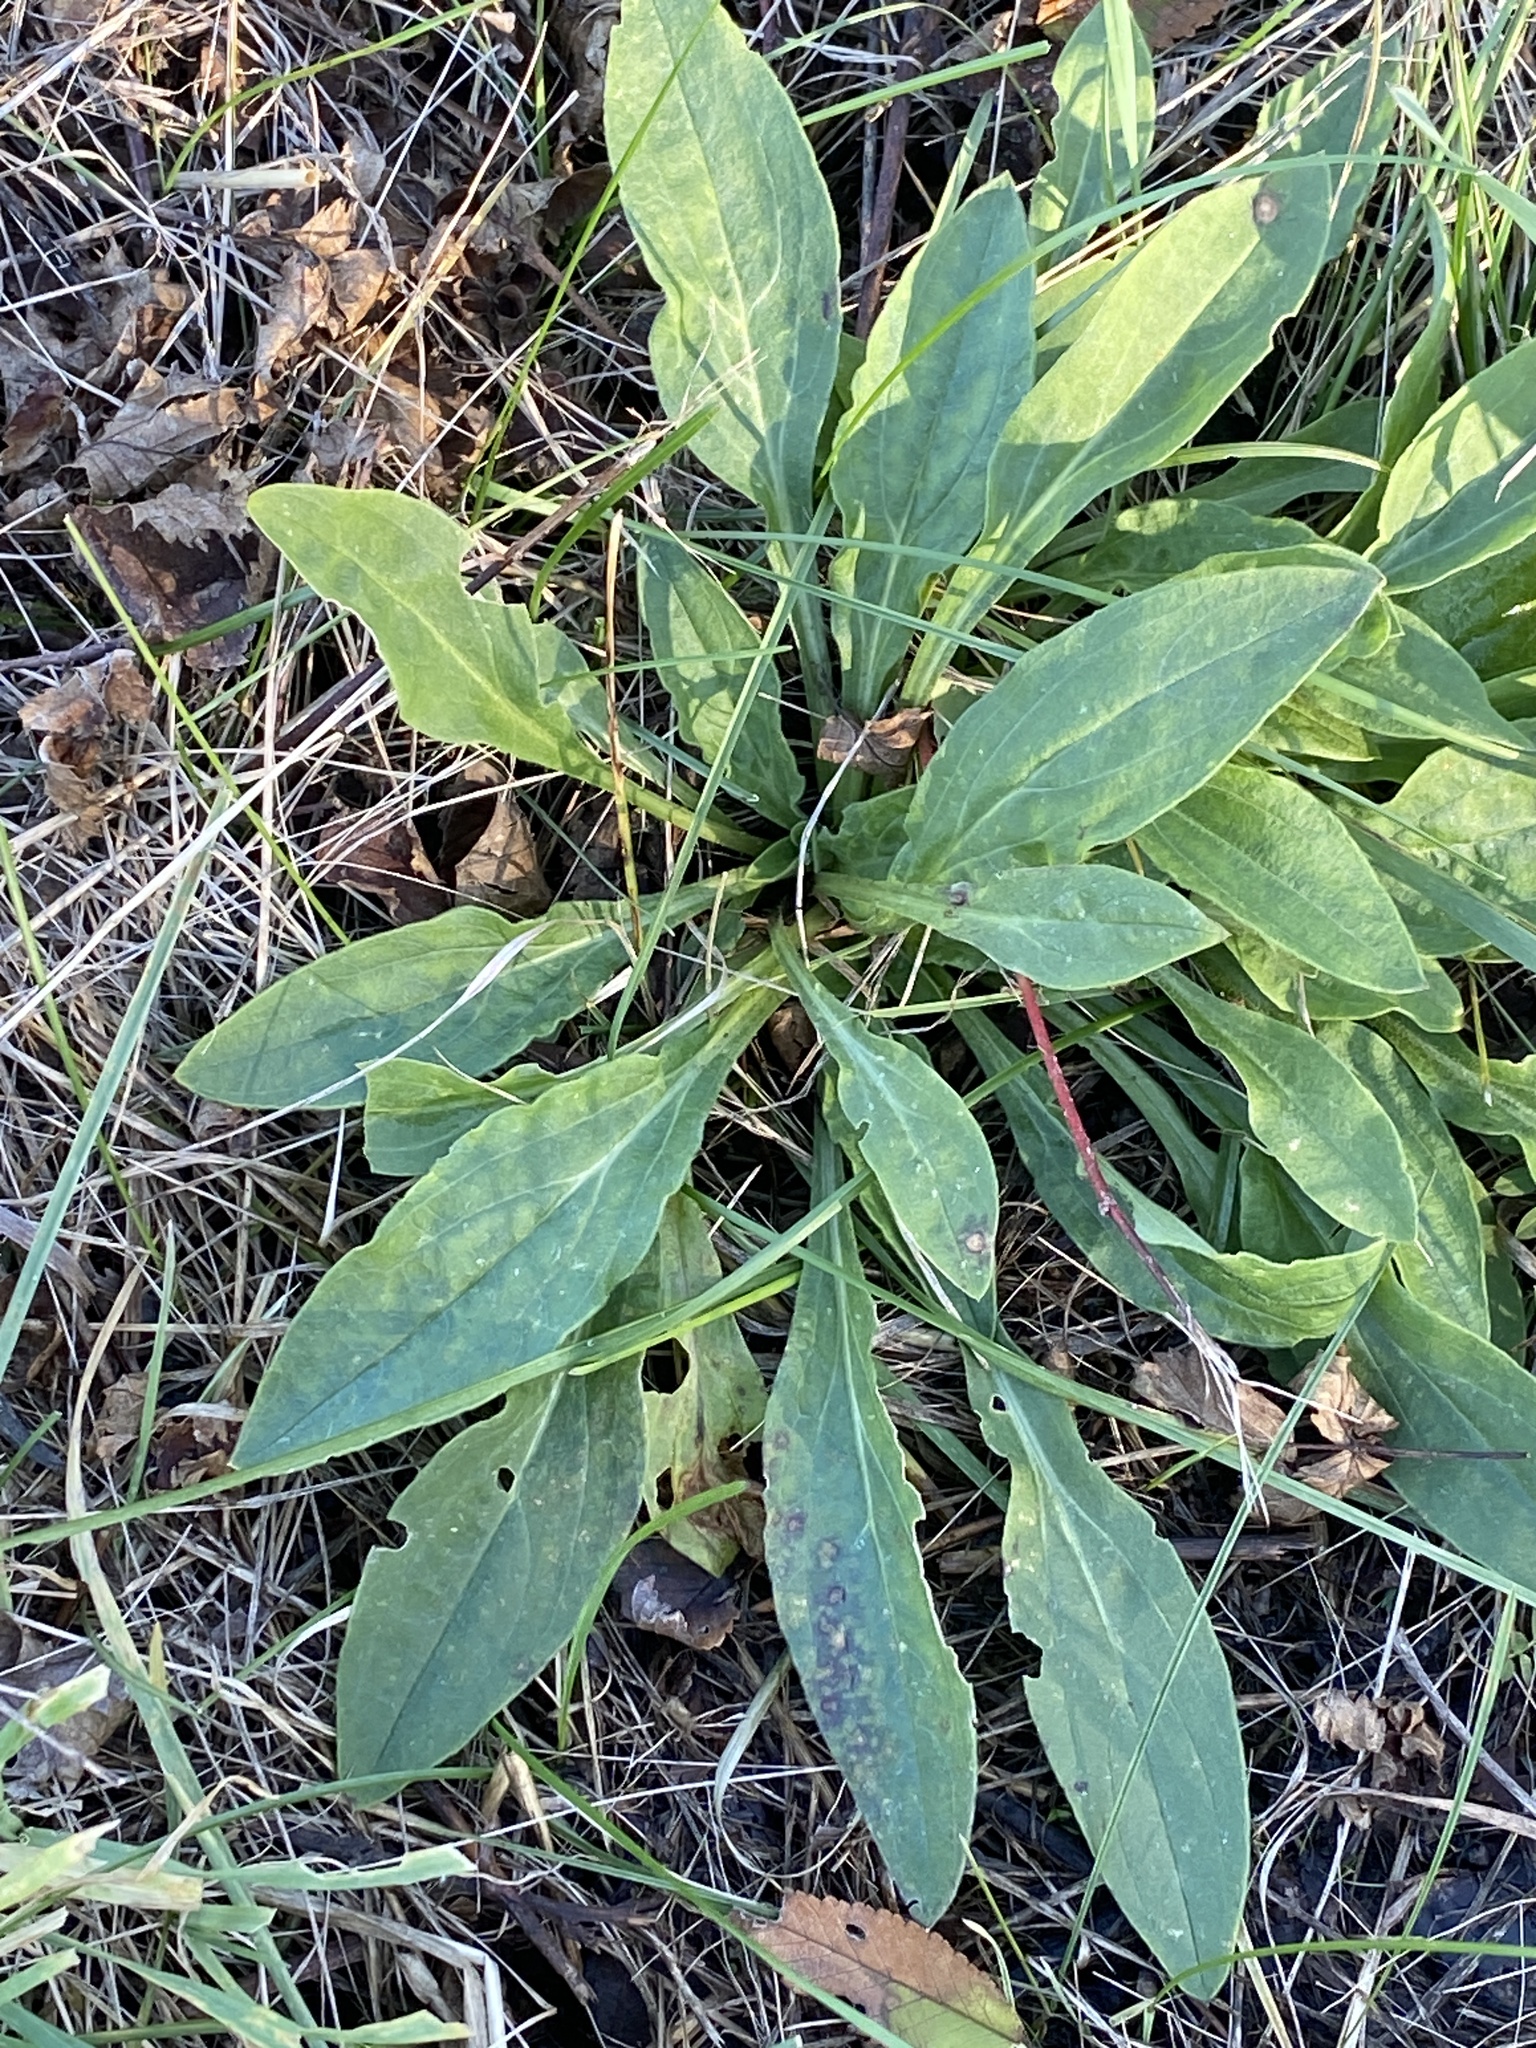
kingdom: Plantae
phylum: Tracheophyta
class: Magnoliopsida
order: Caryophyllales
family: Caryophyllaceae
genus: Silene
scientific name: Silene latifolia
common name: White campion
